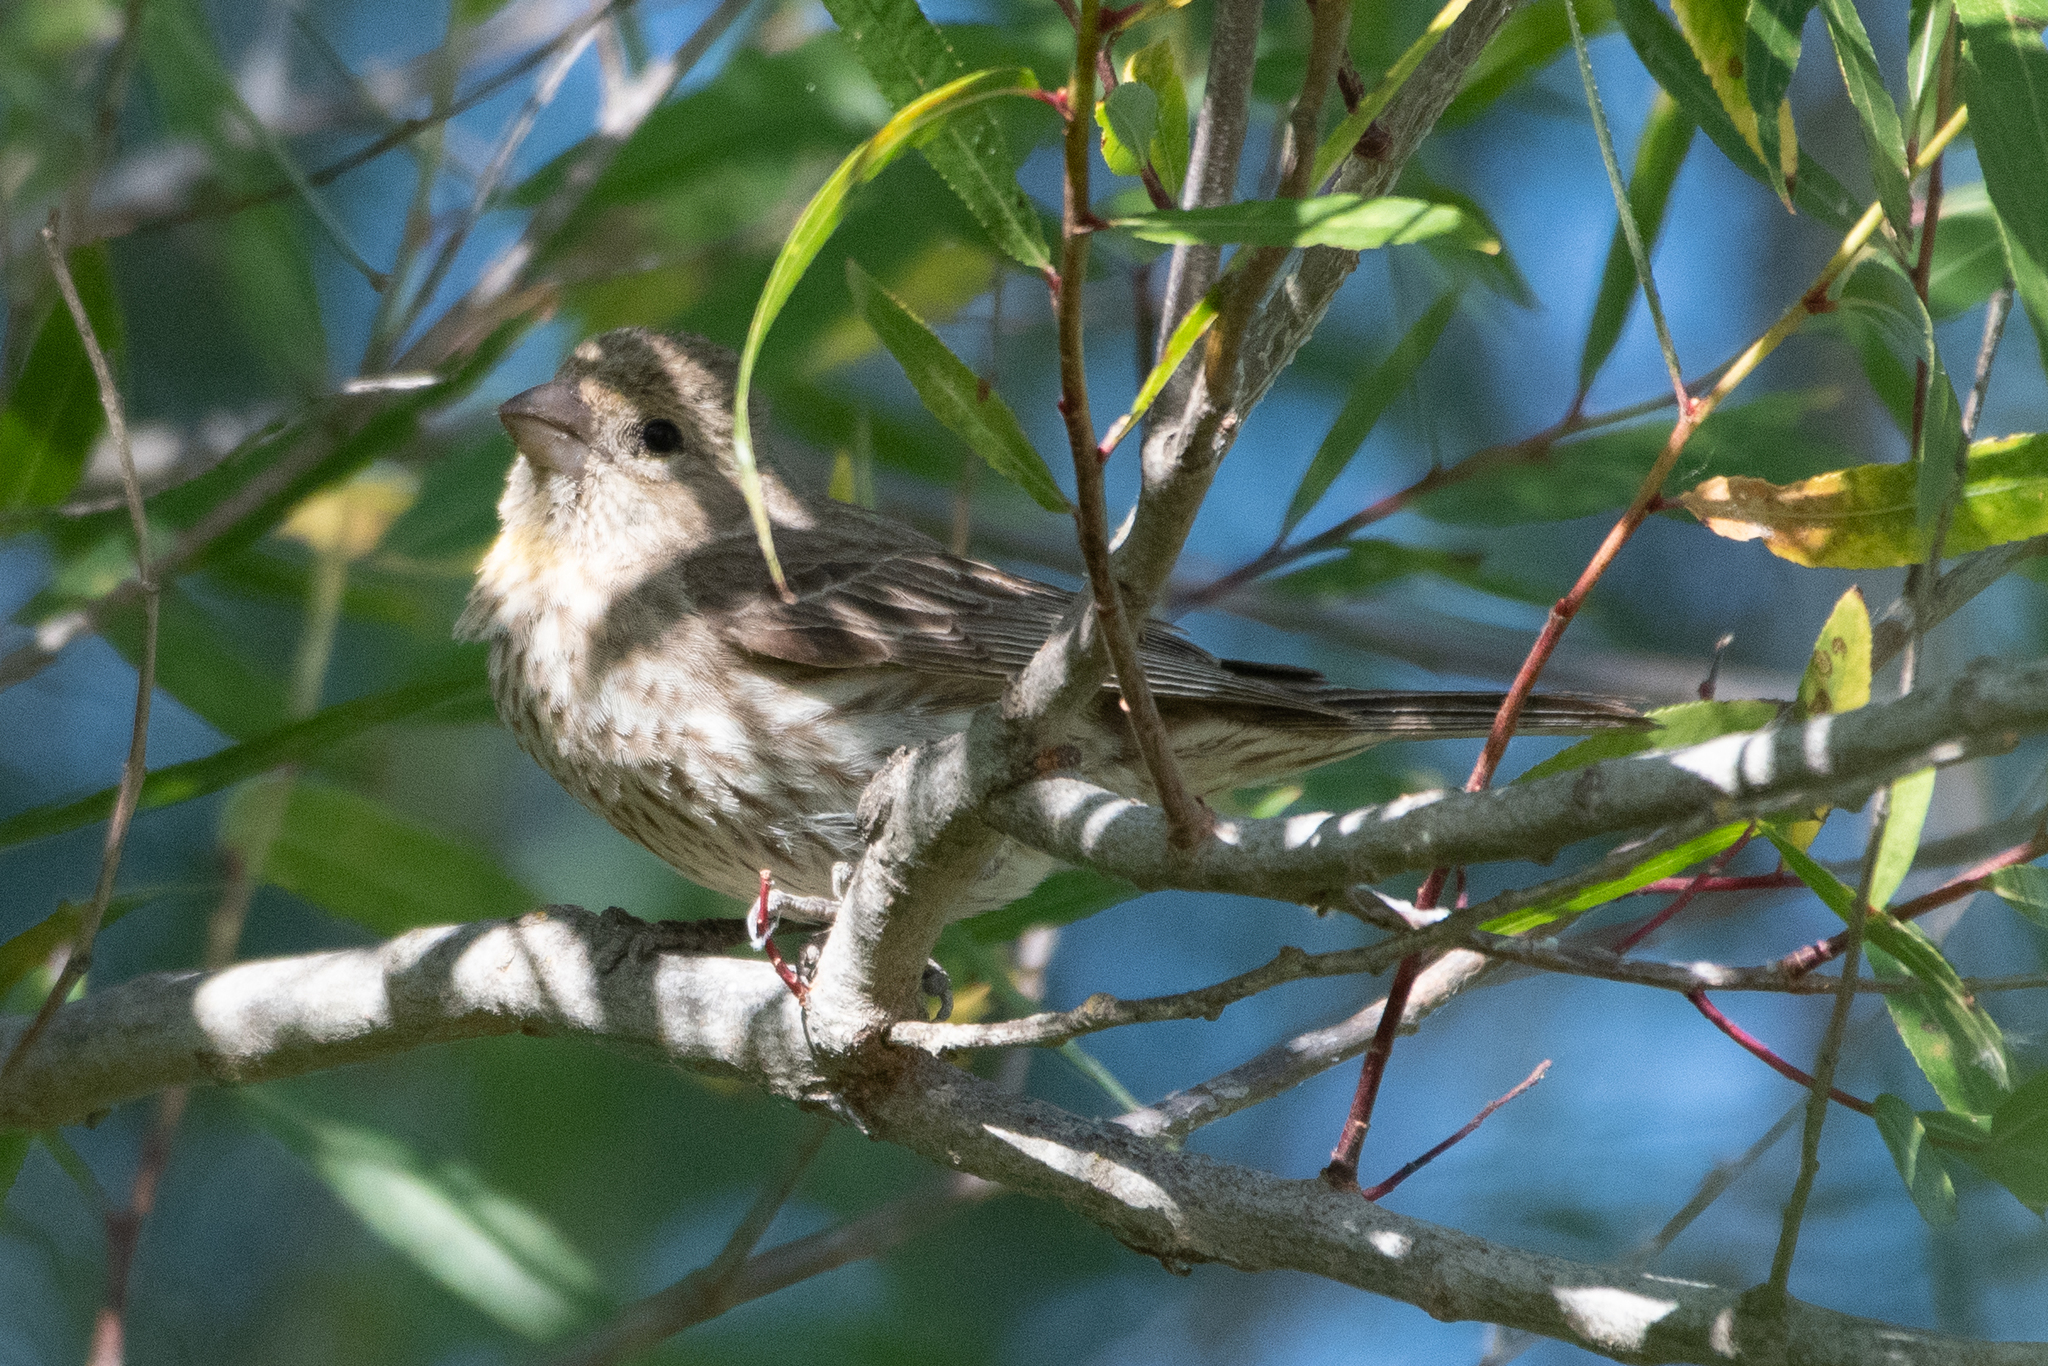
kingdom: Animalia
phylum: Chordata
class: Aves
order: Passeriformes
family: Fringillidae
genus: Haemorhous
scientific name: Haemorhous mexicanus
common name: House finch
